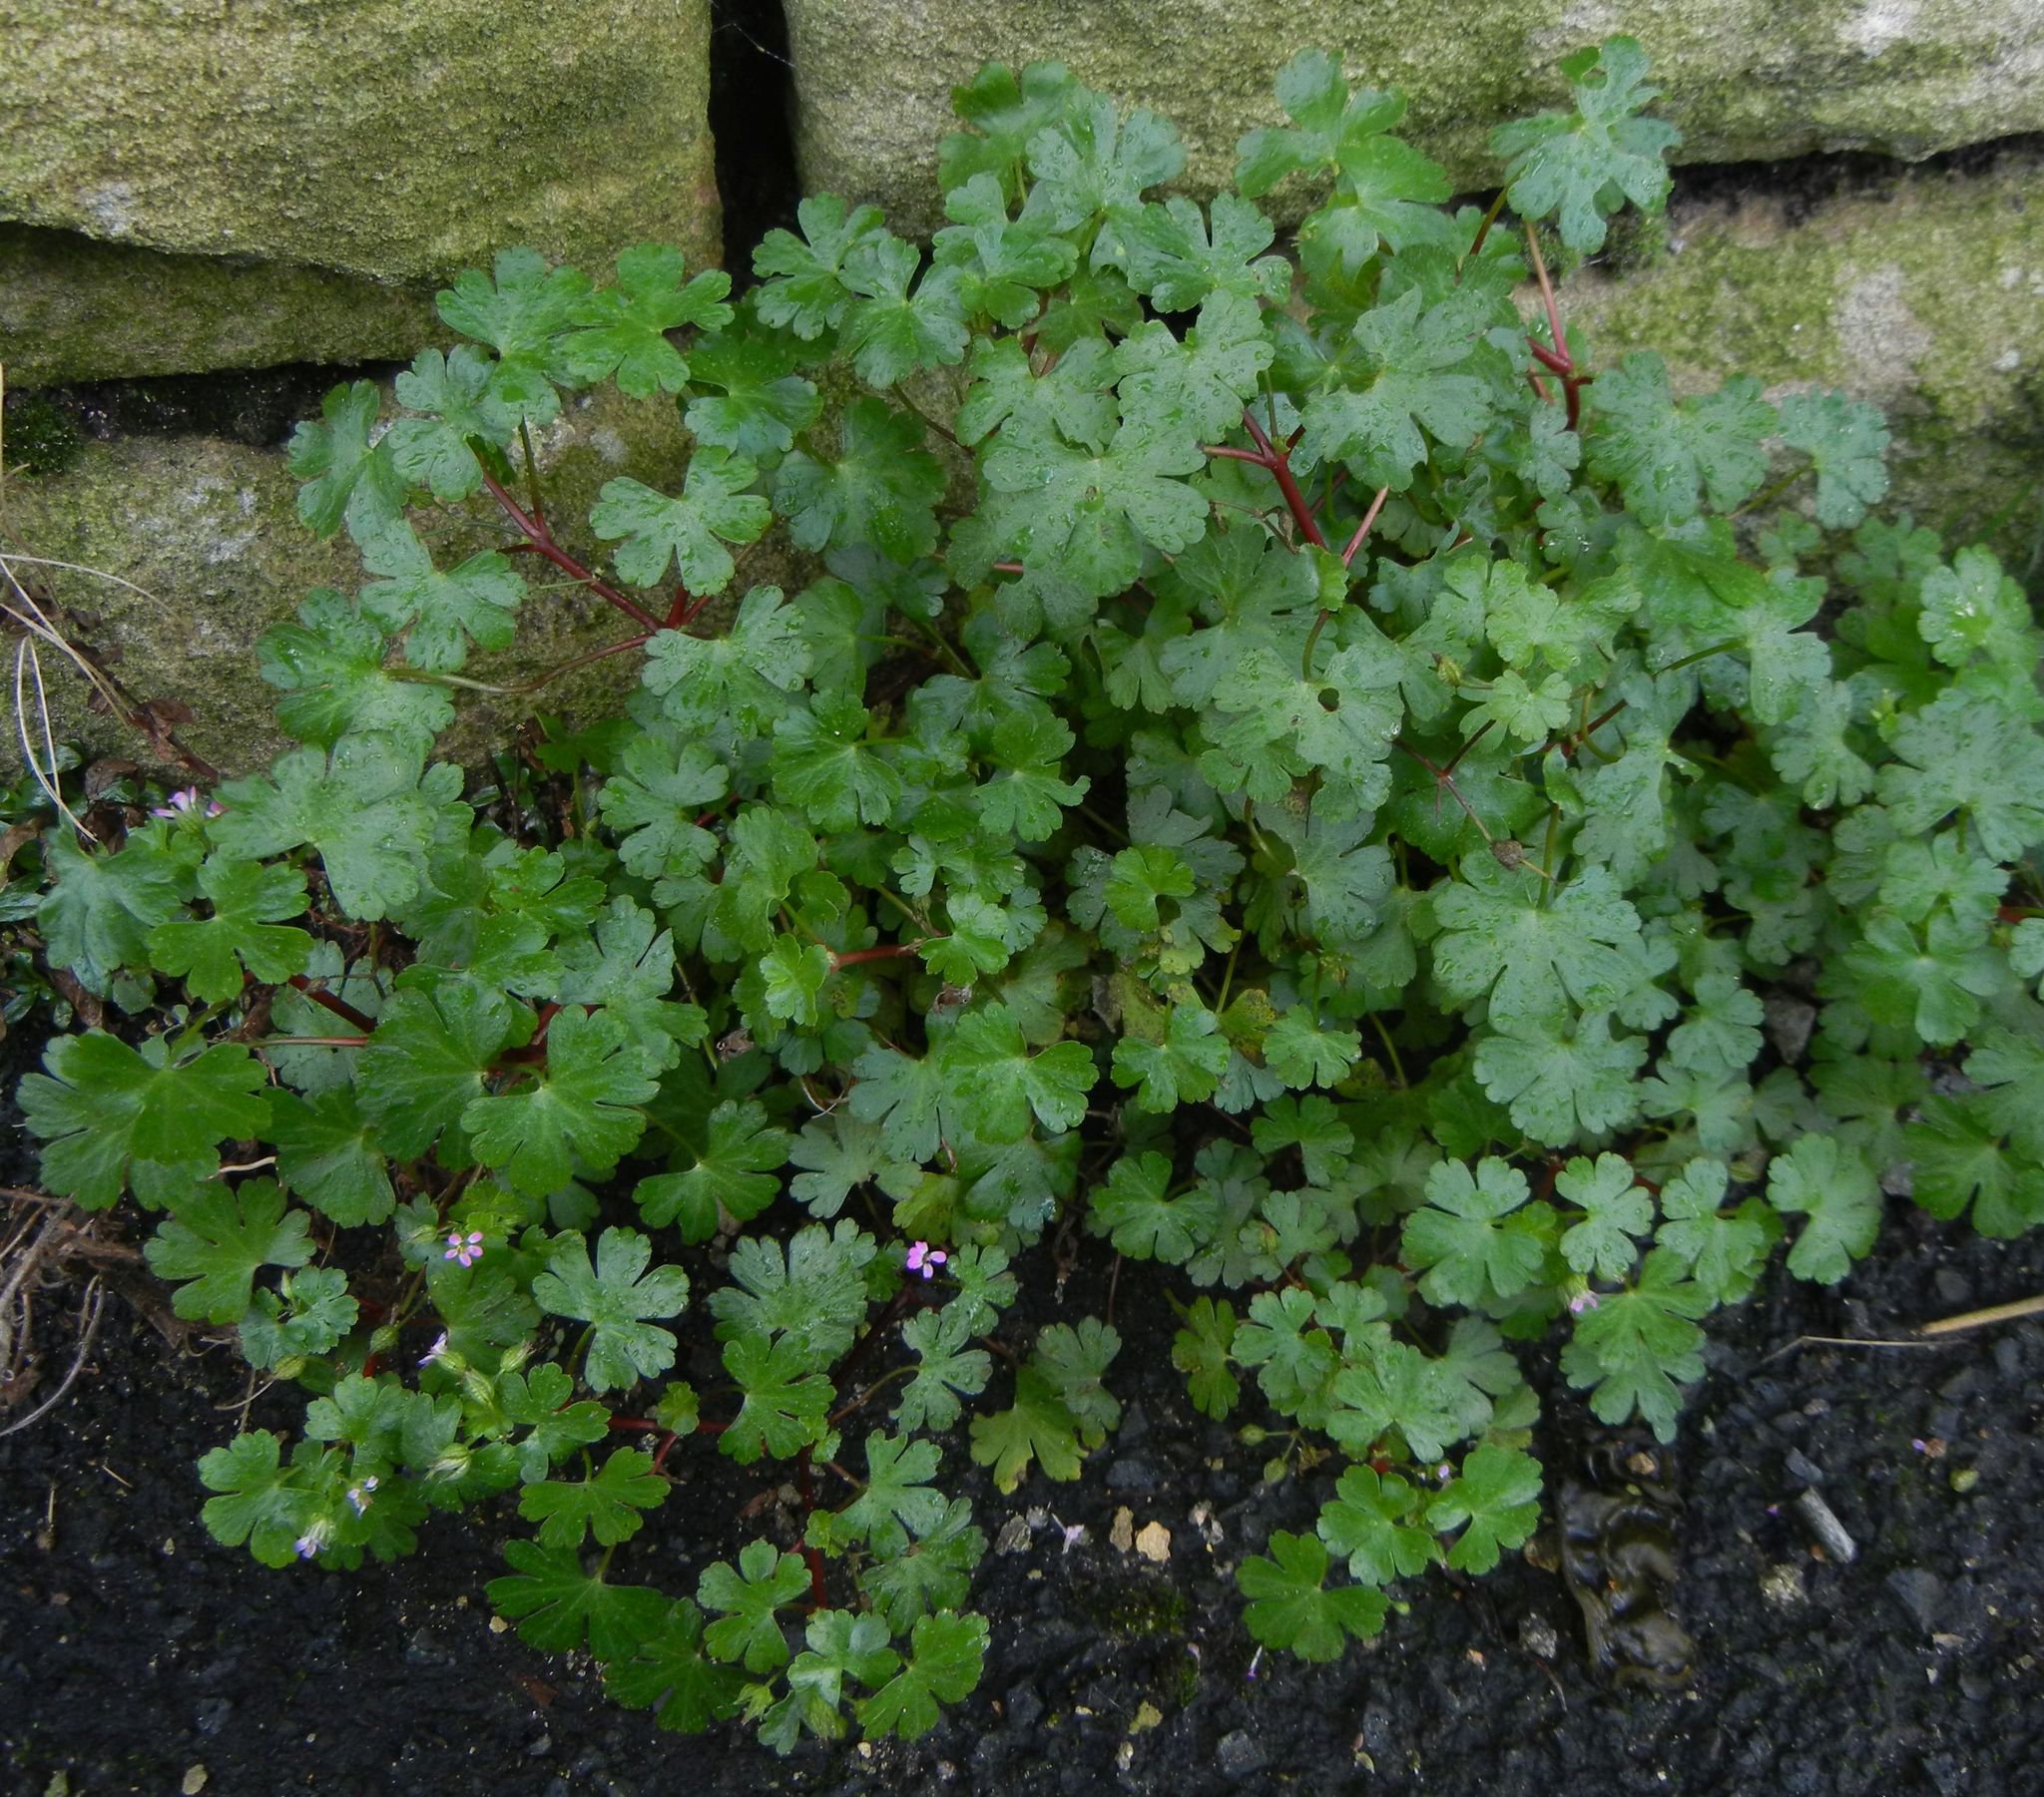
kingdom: Plantae
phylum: Tracheophyta
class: Magnoliopsida
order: Geraniales
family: Geraniaceae
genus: Geranium
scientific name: Geranium lucidum
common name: Shining crane's-bill
